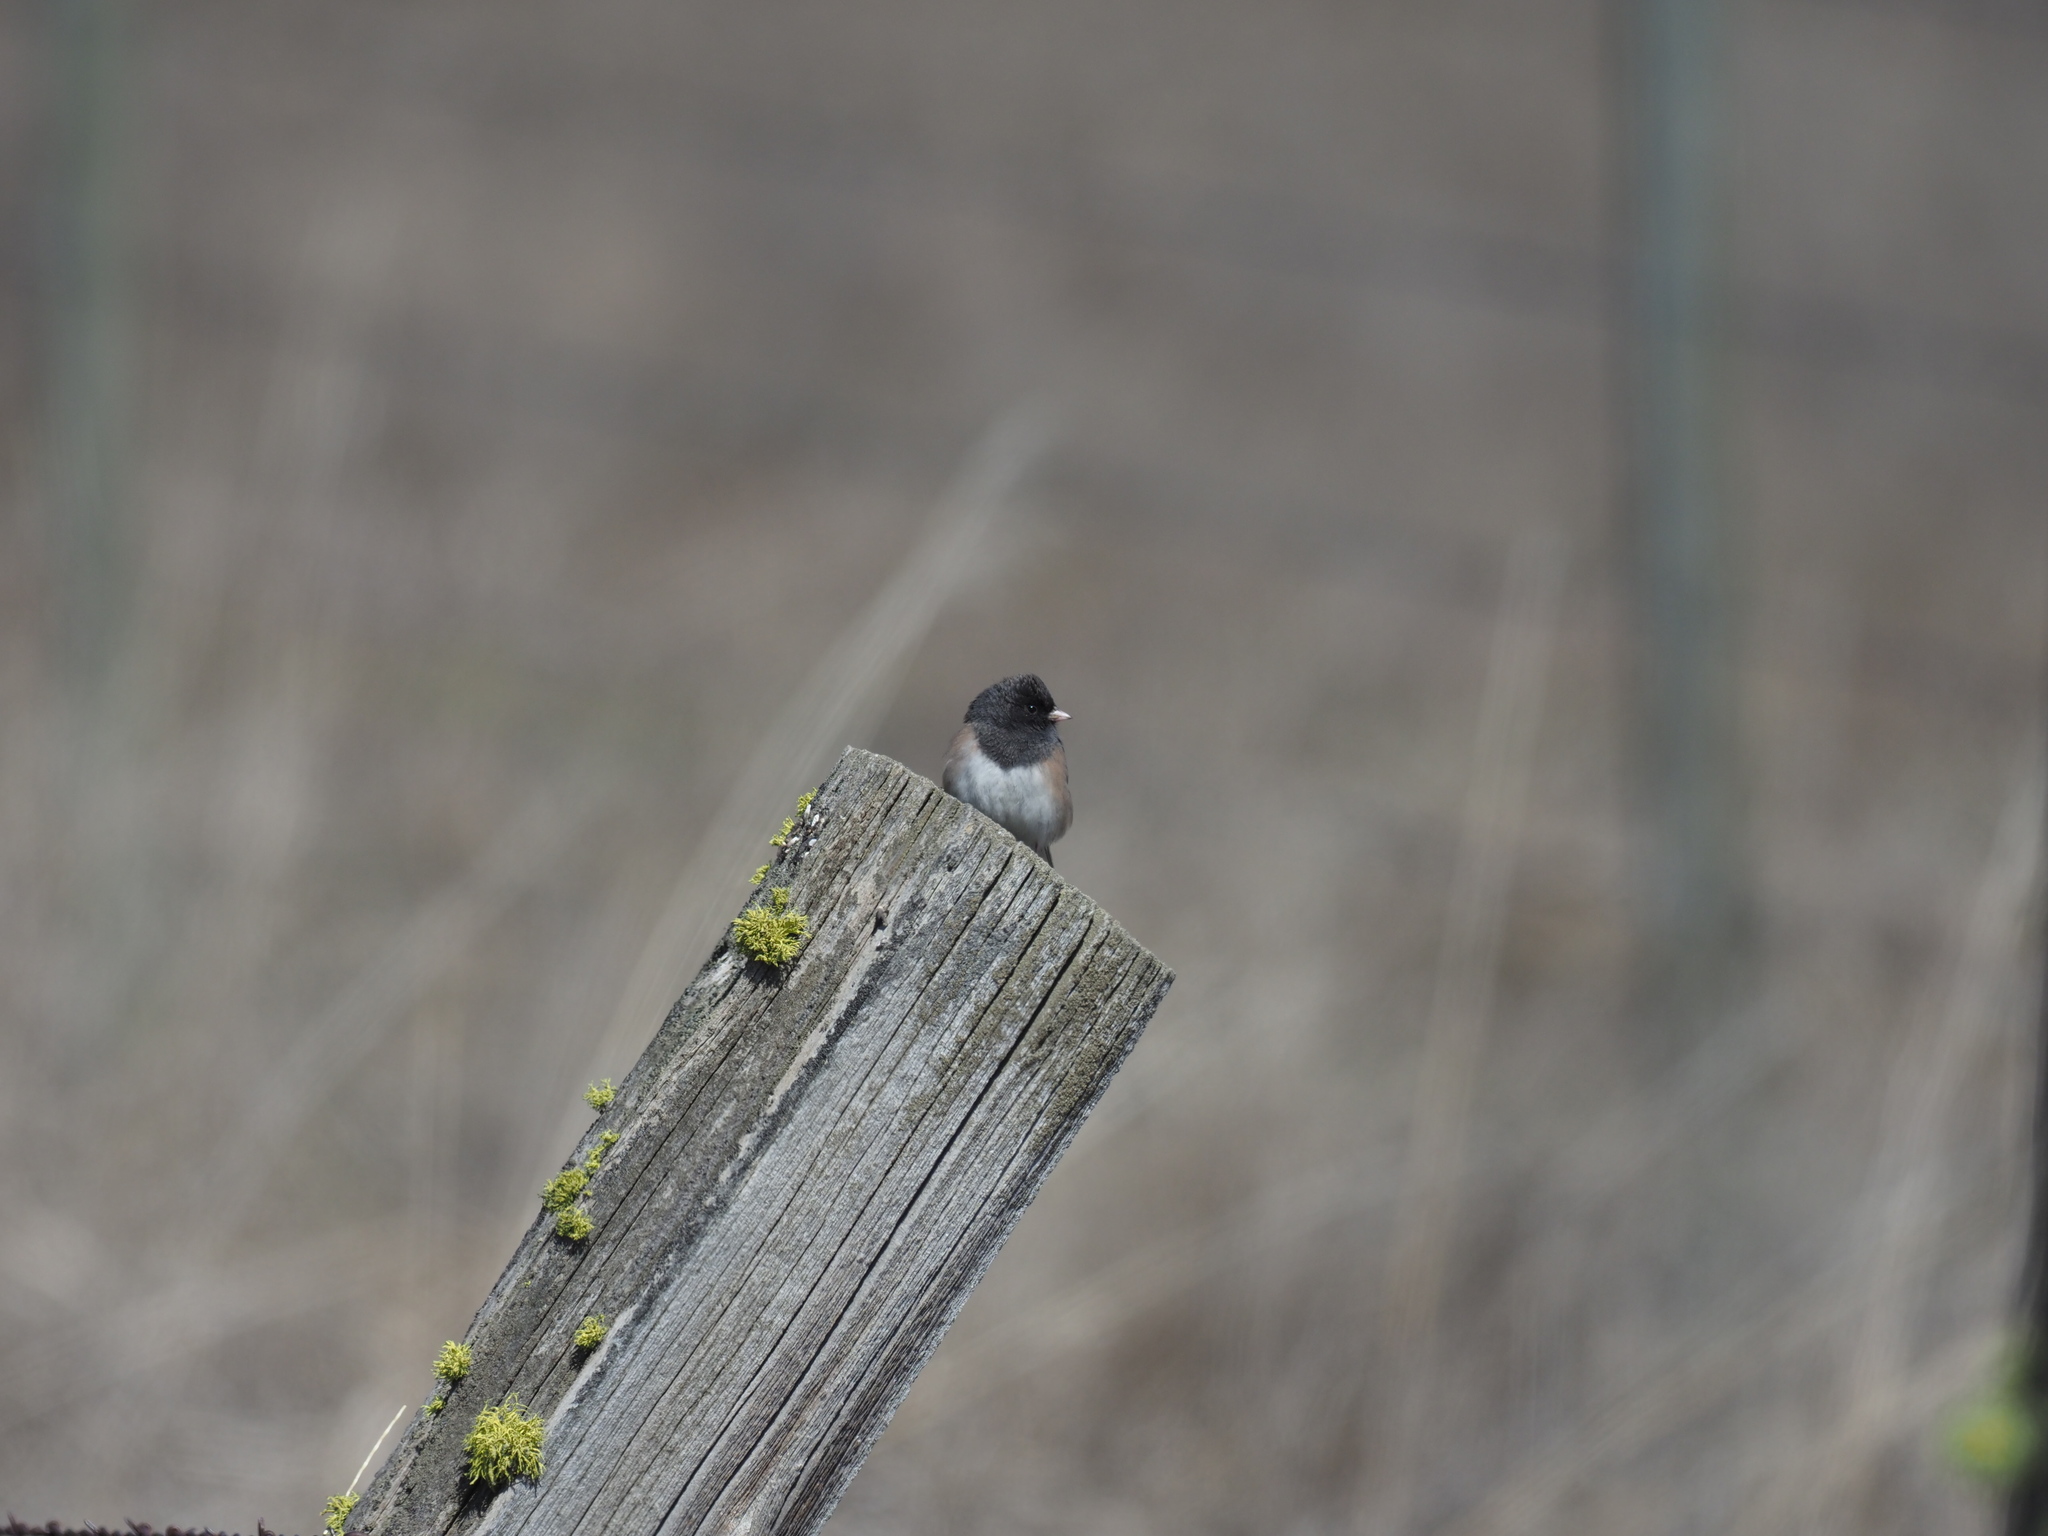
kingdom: Animalia
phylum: Chordata
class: Aves
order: Passeriformes
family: Passerellidae
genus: Junco
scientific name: Junco hyemalis
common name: Dark-eyed junco
